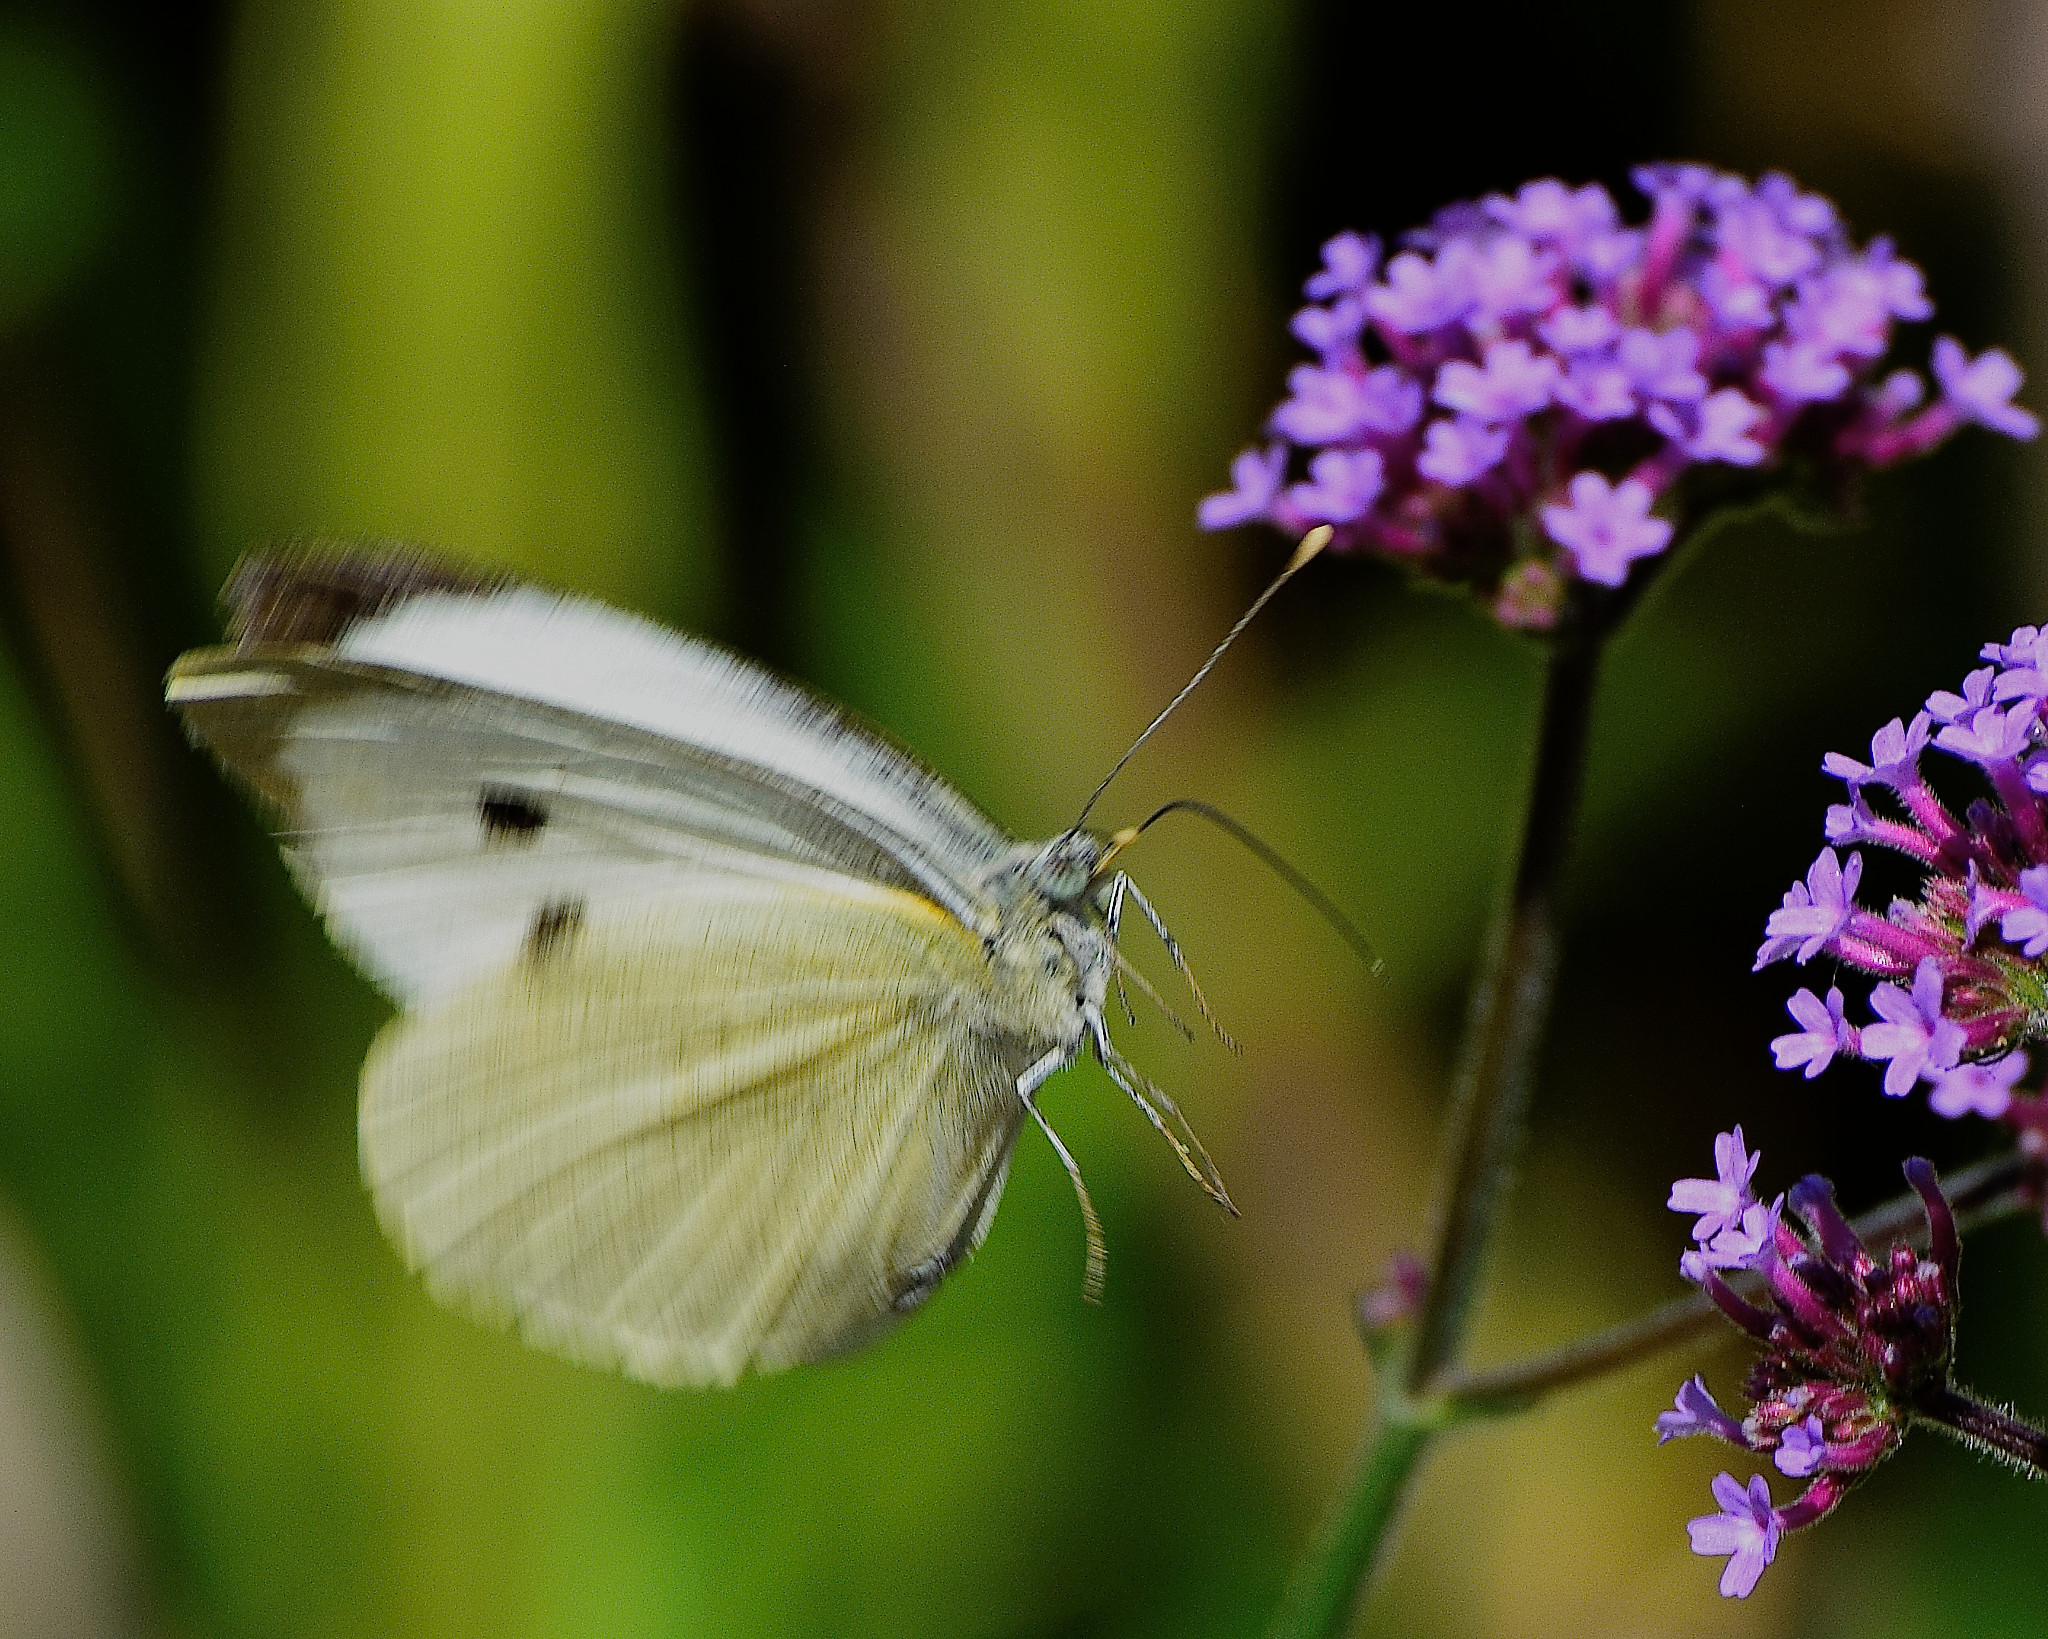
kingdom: Animalia
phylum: Arthropoda
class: Insecta
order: Lepidoptera
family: Pieridae
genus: Pieris
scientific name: Pieris brassicae
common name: Large white
